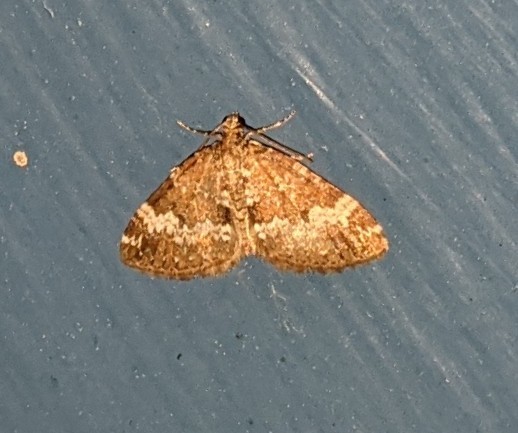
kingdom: Animalia
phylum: Arthropoda
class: Insecta
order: Lepidoptera
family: Geometridae
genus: Perizoma
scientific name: Perizoma alchemillata
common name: Small rivulet
